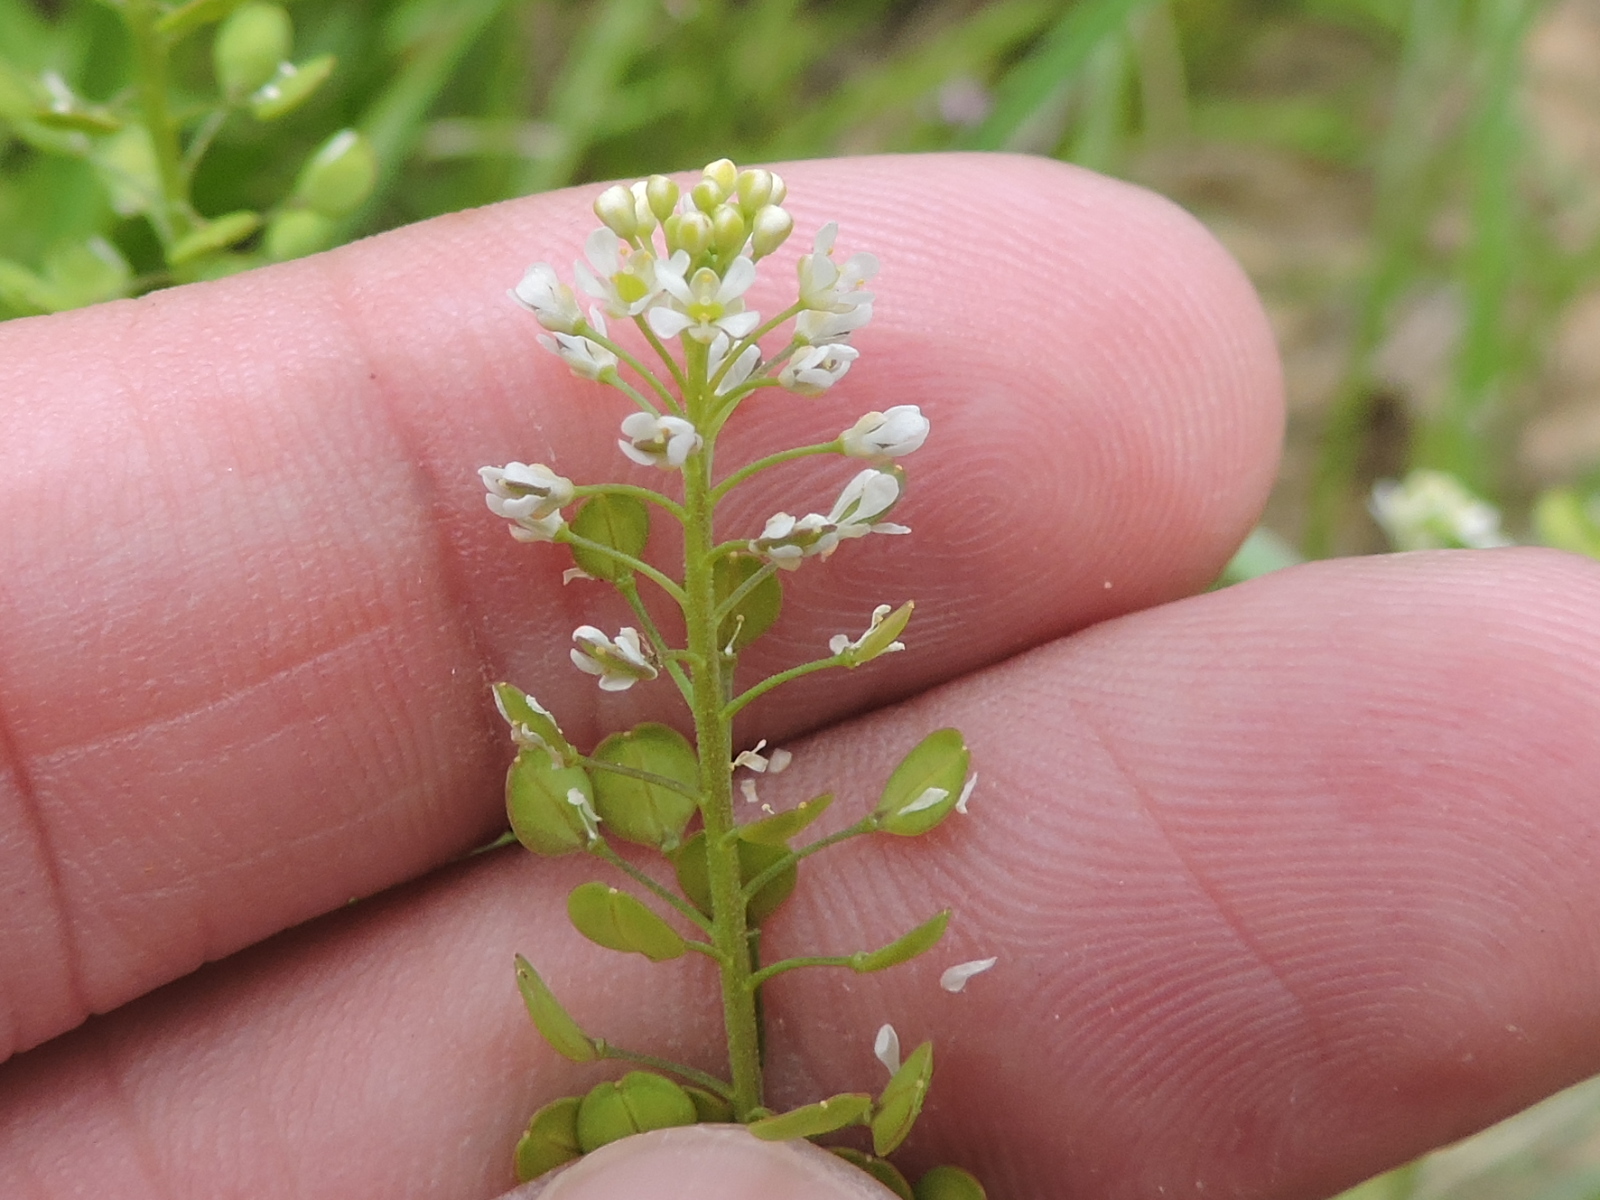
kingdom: Plantae
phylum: Tracheophyta
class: Magnoliopsida
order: Brassicales
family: Brassicaceae
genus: Lepidium
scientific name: Lepidium virginicum
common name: Least pepperwort
